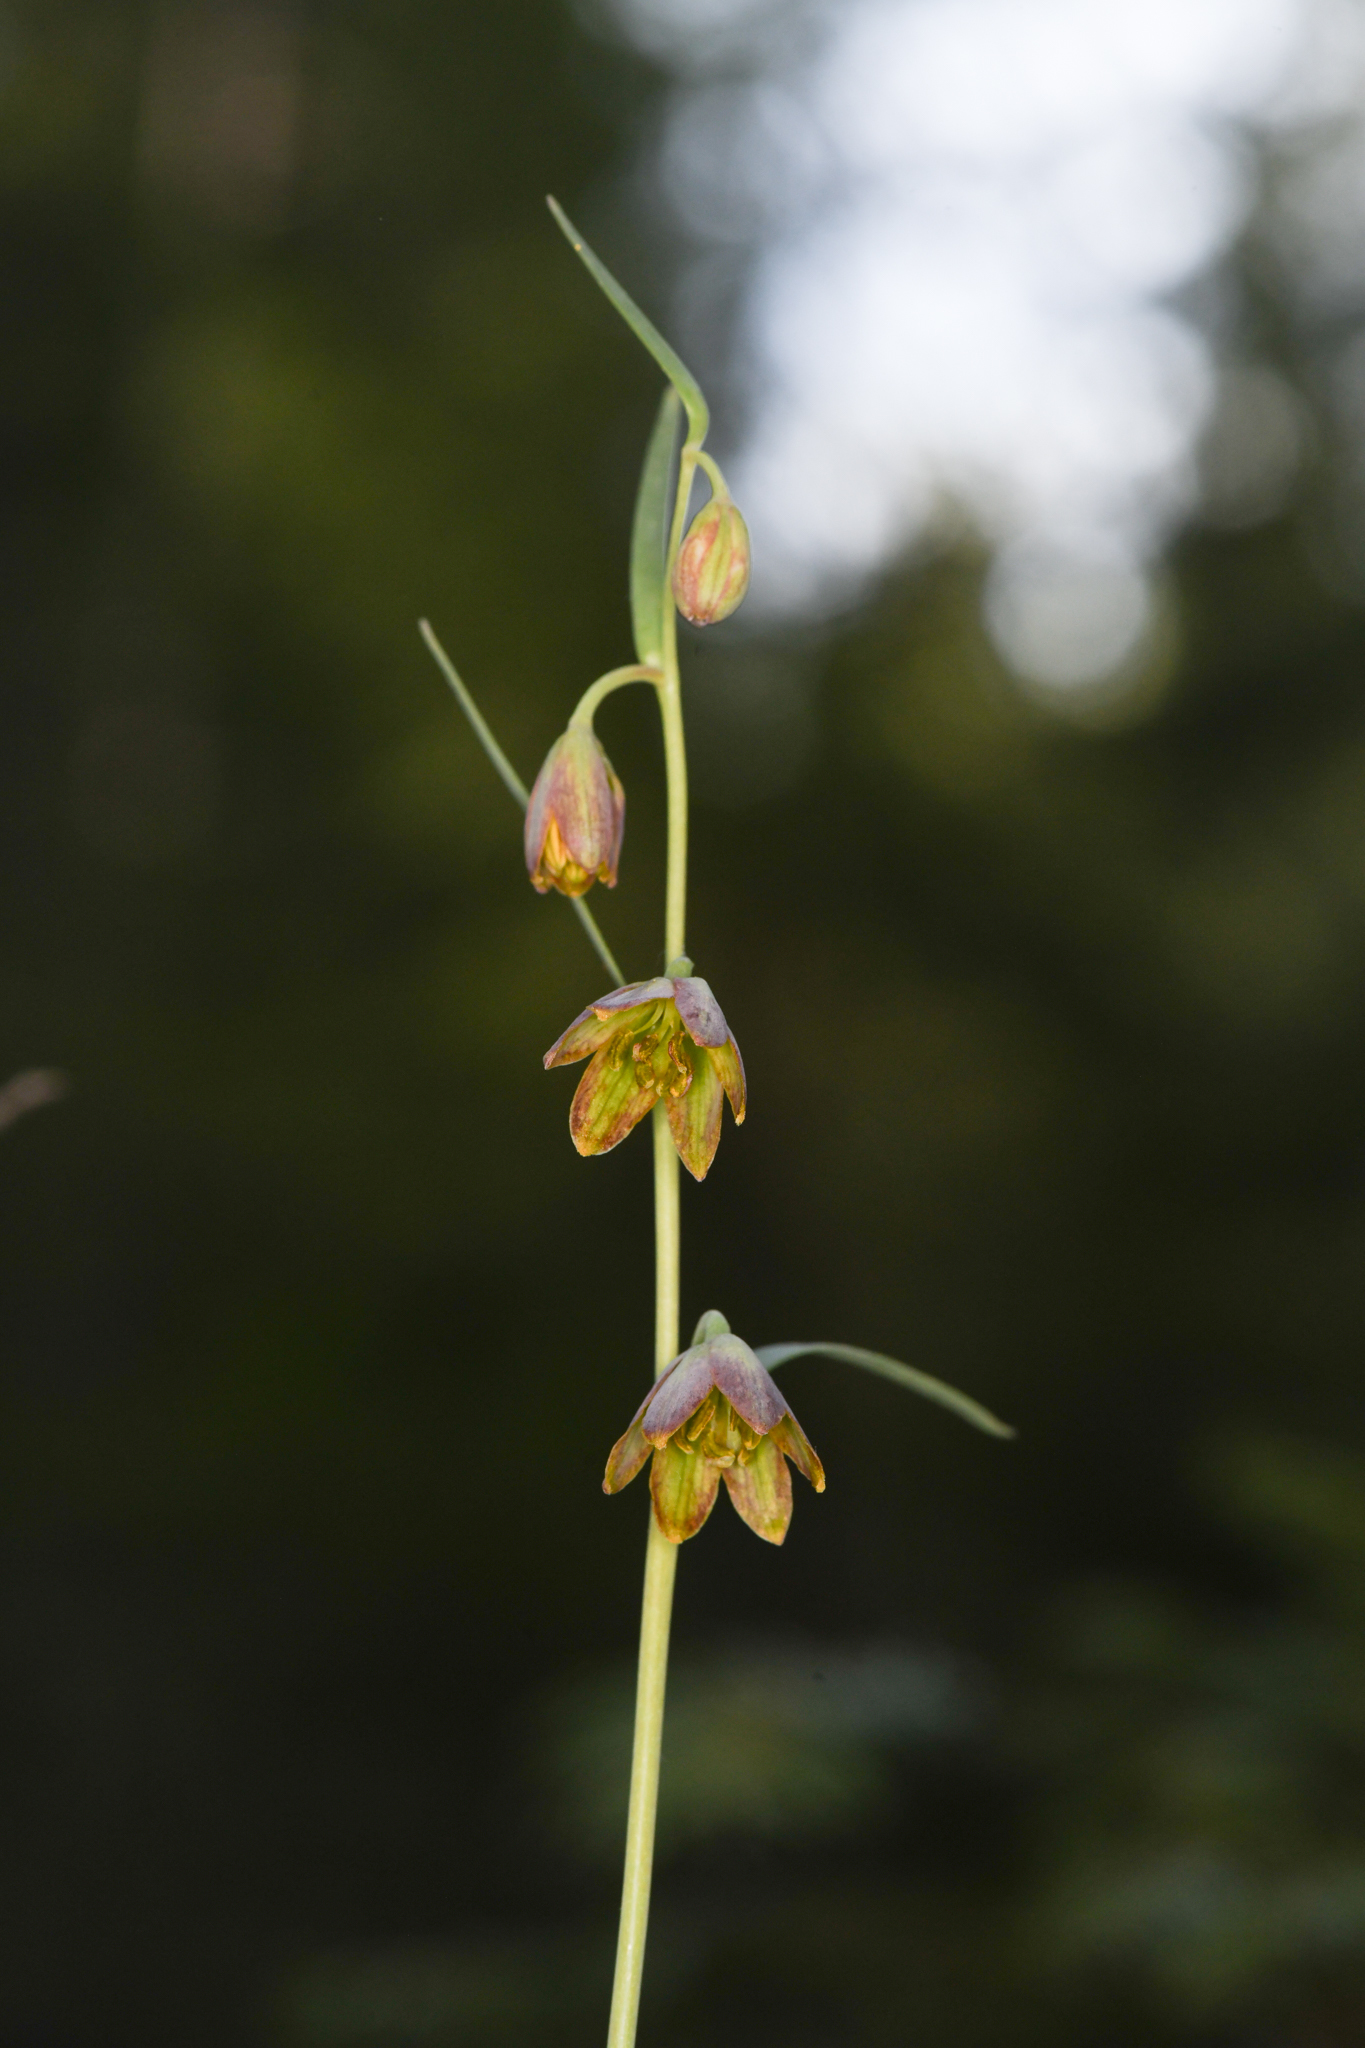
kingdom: Plantae
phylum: Tracheophyta
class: Liliopsida
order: Liliales
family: Liliaceae
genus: Fritillaria
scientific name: Fritillaria micrantha
